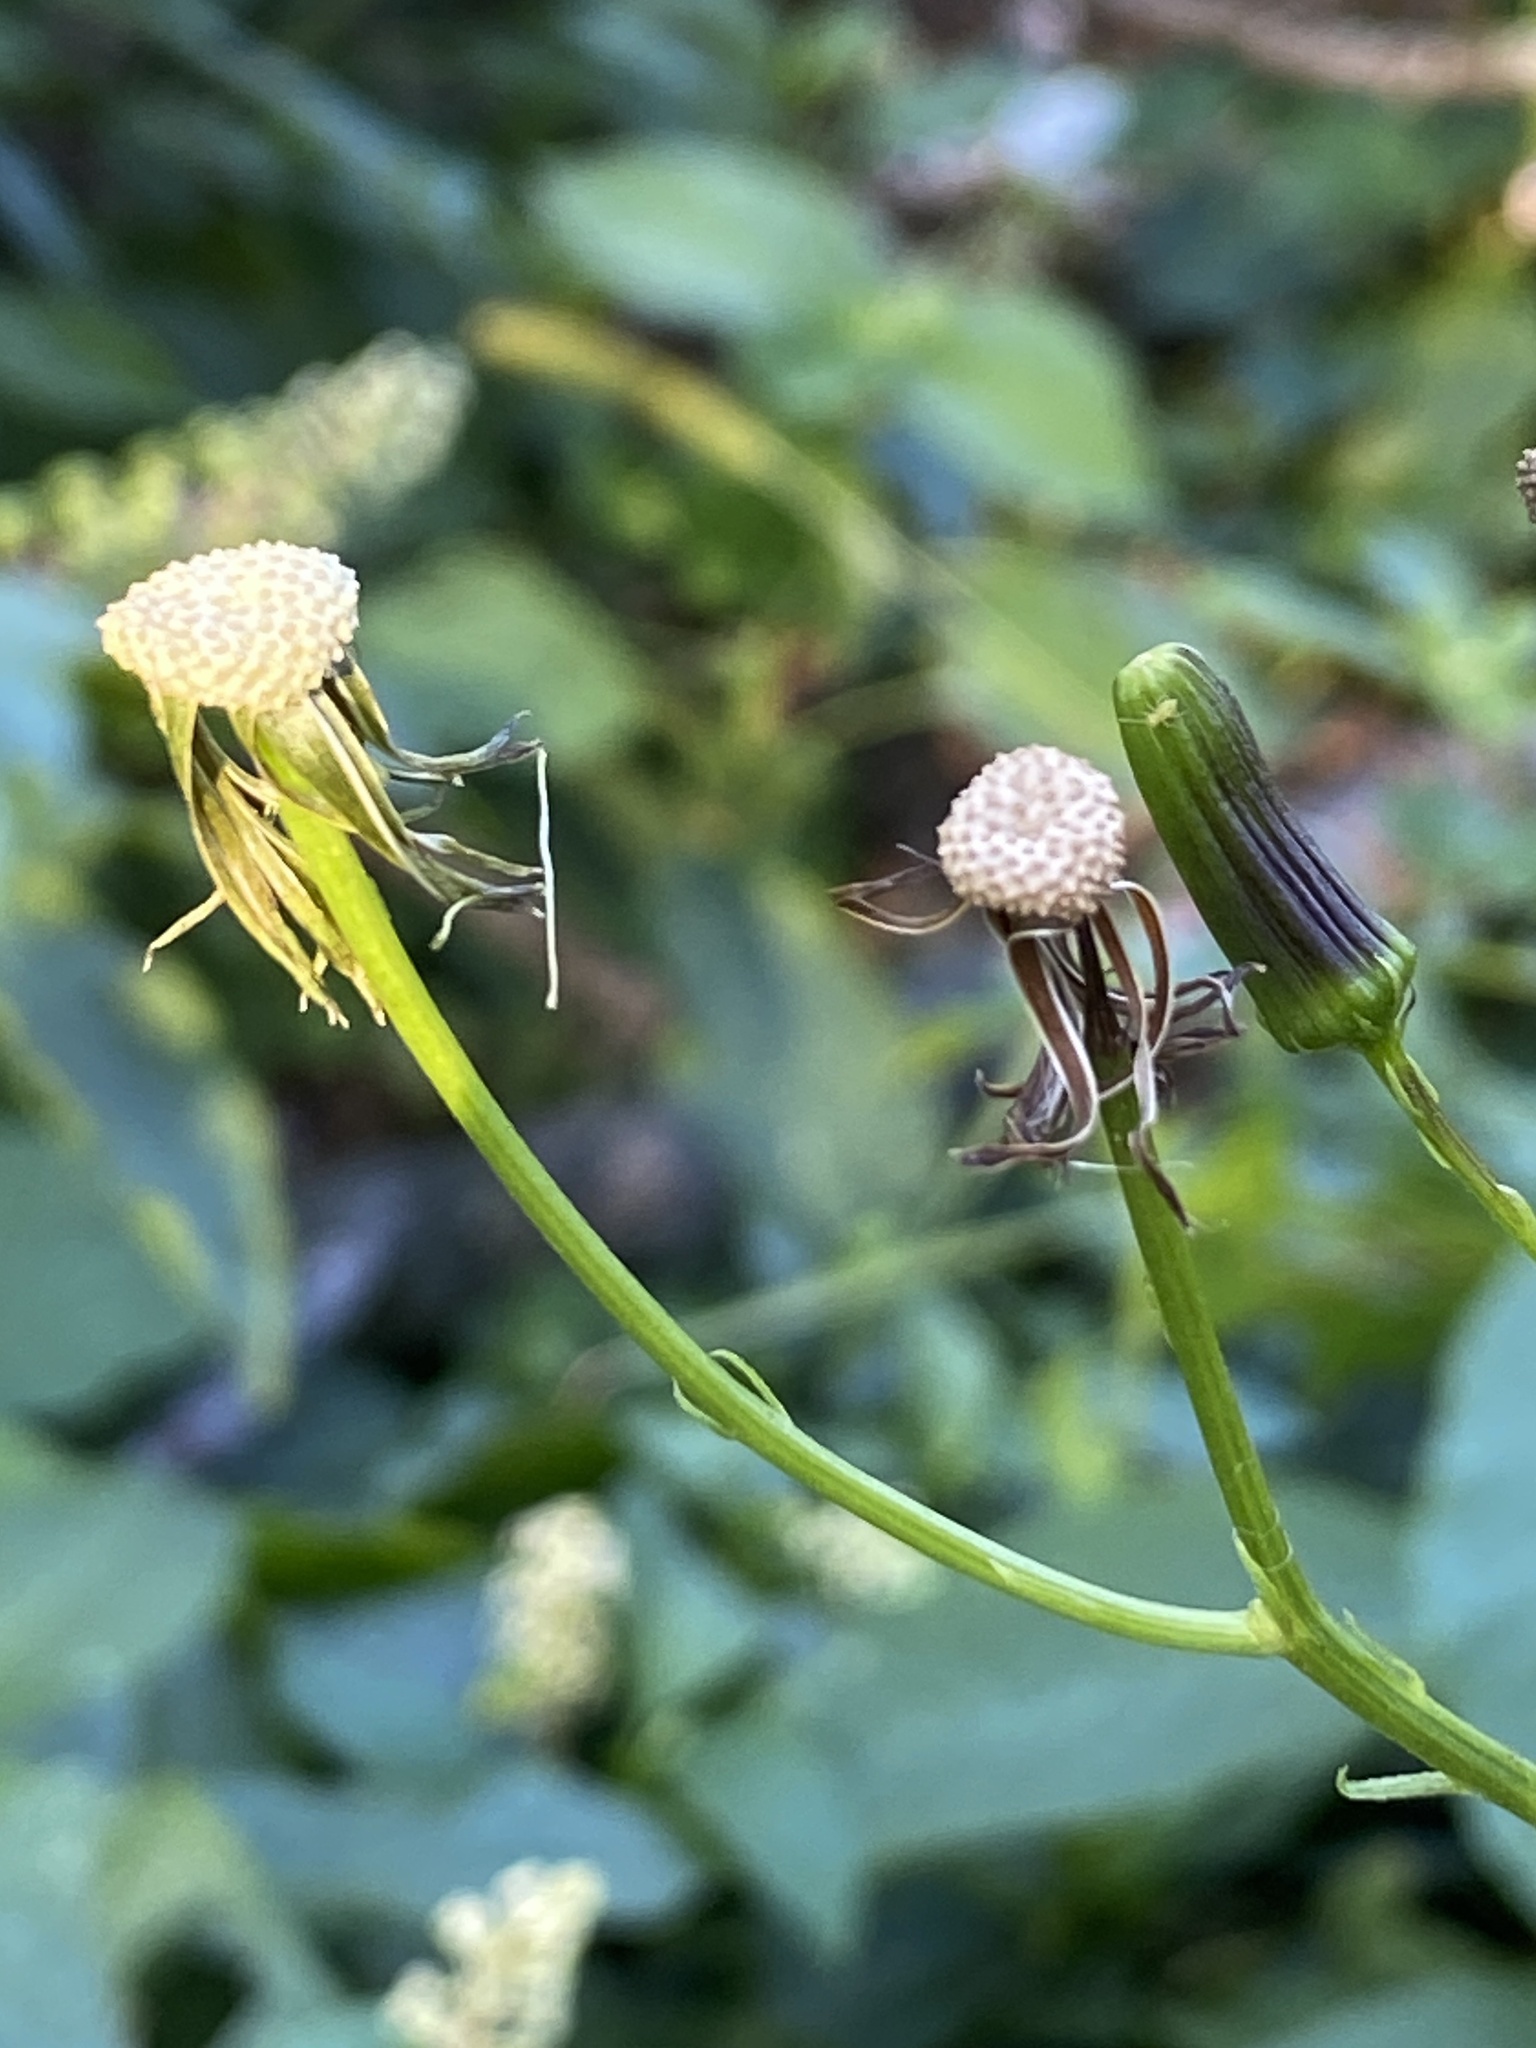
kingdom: Plantae
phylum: Tracheophyta
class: Magnoliopsida
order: Asterales
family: Asteraceae
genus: Erechtites
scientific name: Erechtites hieraciifolius
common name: American burnweed
